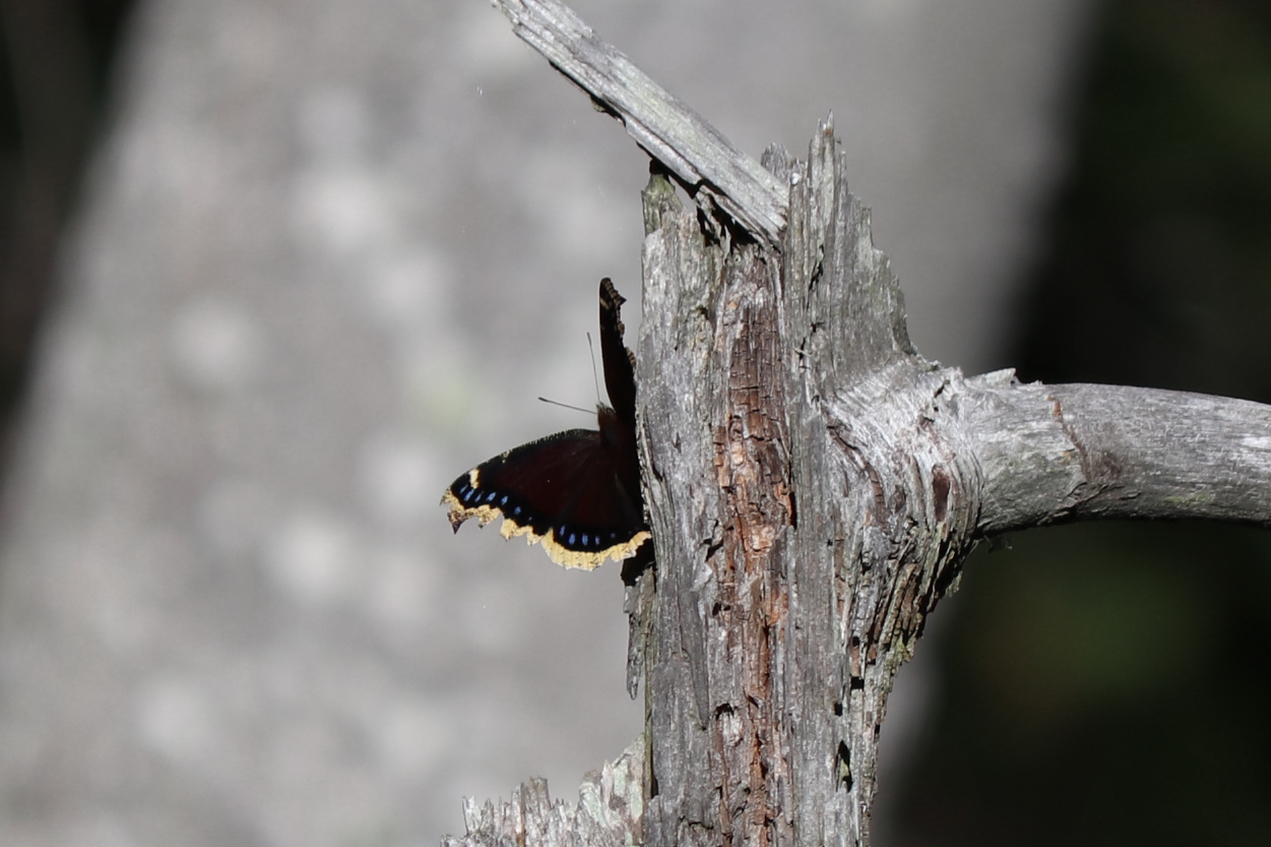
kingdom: Animalia
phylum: Arthropoda
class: Insecta
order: Lepidoptera
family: Nymphalidae
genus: Nymphalis
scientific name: Nymphalis antiopa
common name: Camberwell beauty
